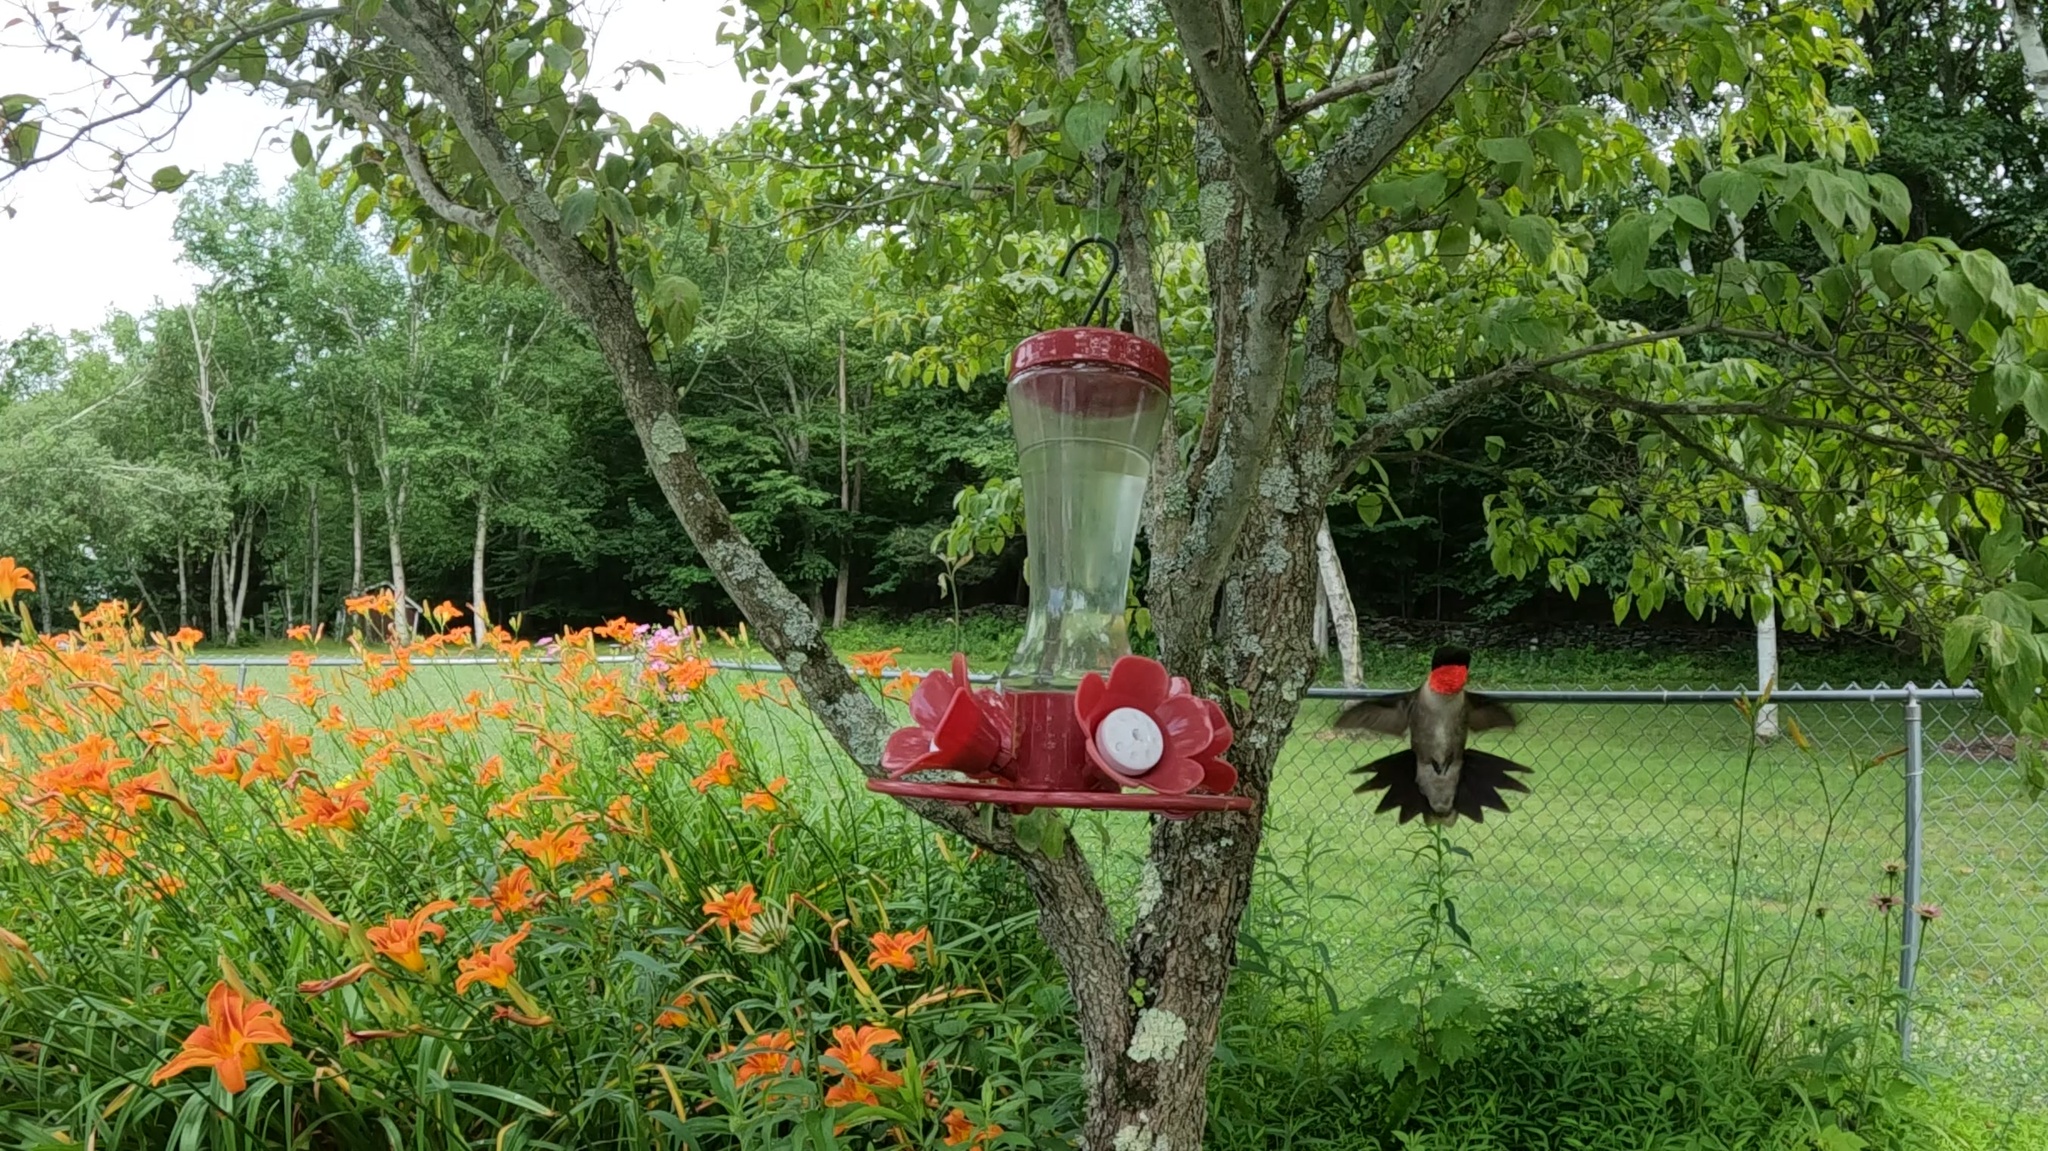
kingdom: Animalia
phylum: Chordata
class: Aves
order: Apodiformes
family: Trochilidae
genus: Archilochus
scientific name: Archilochus colubris
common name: Ruby-throated hummingbird
